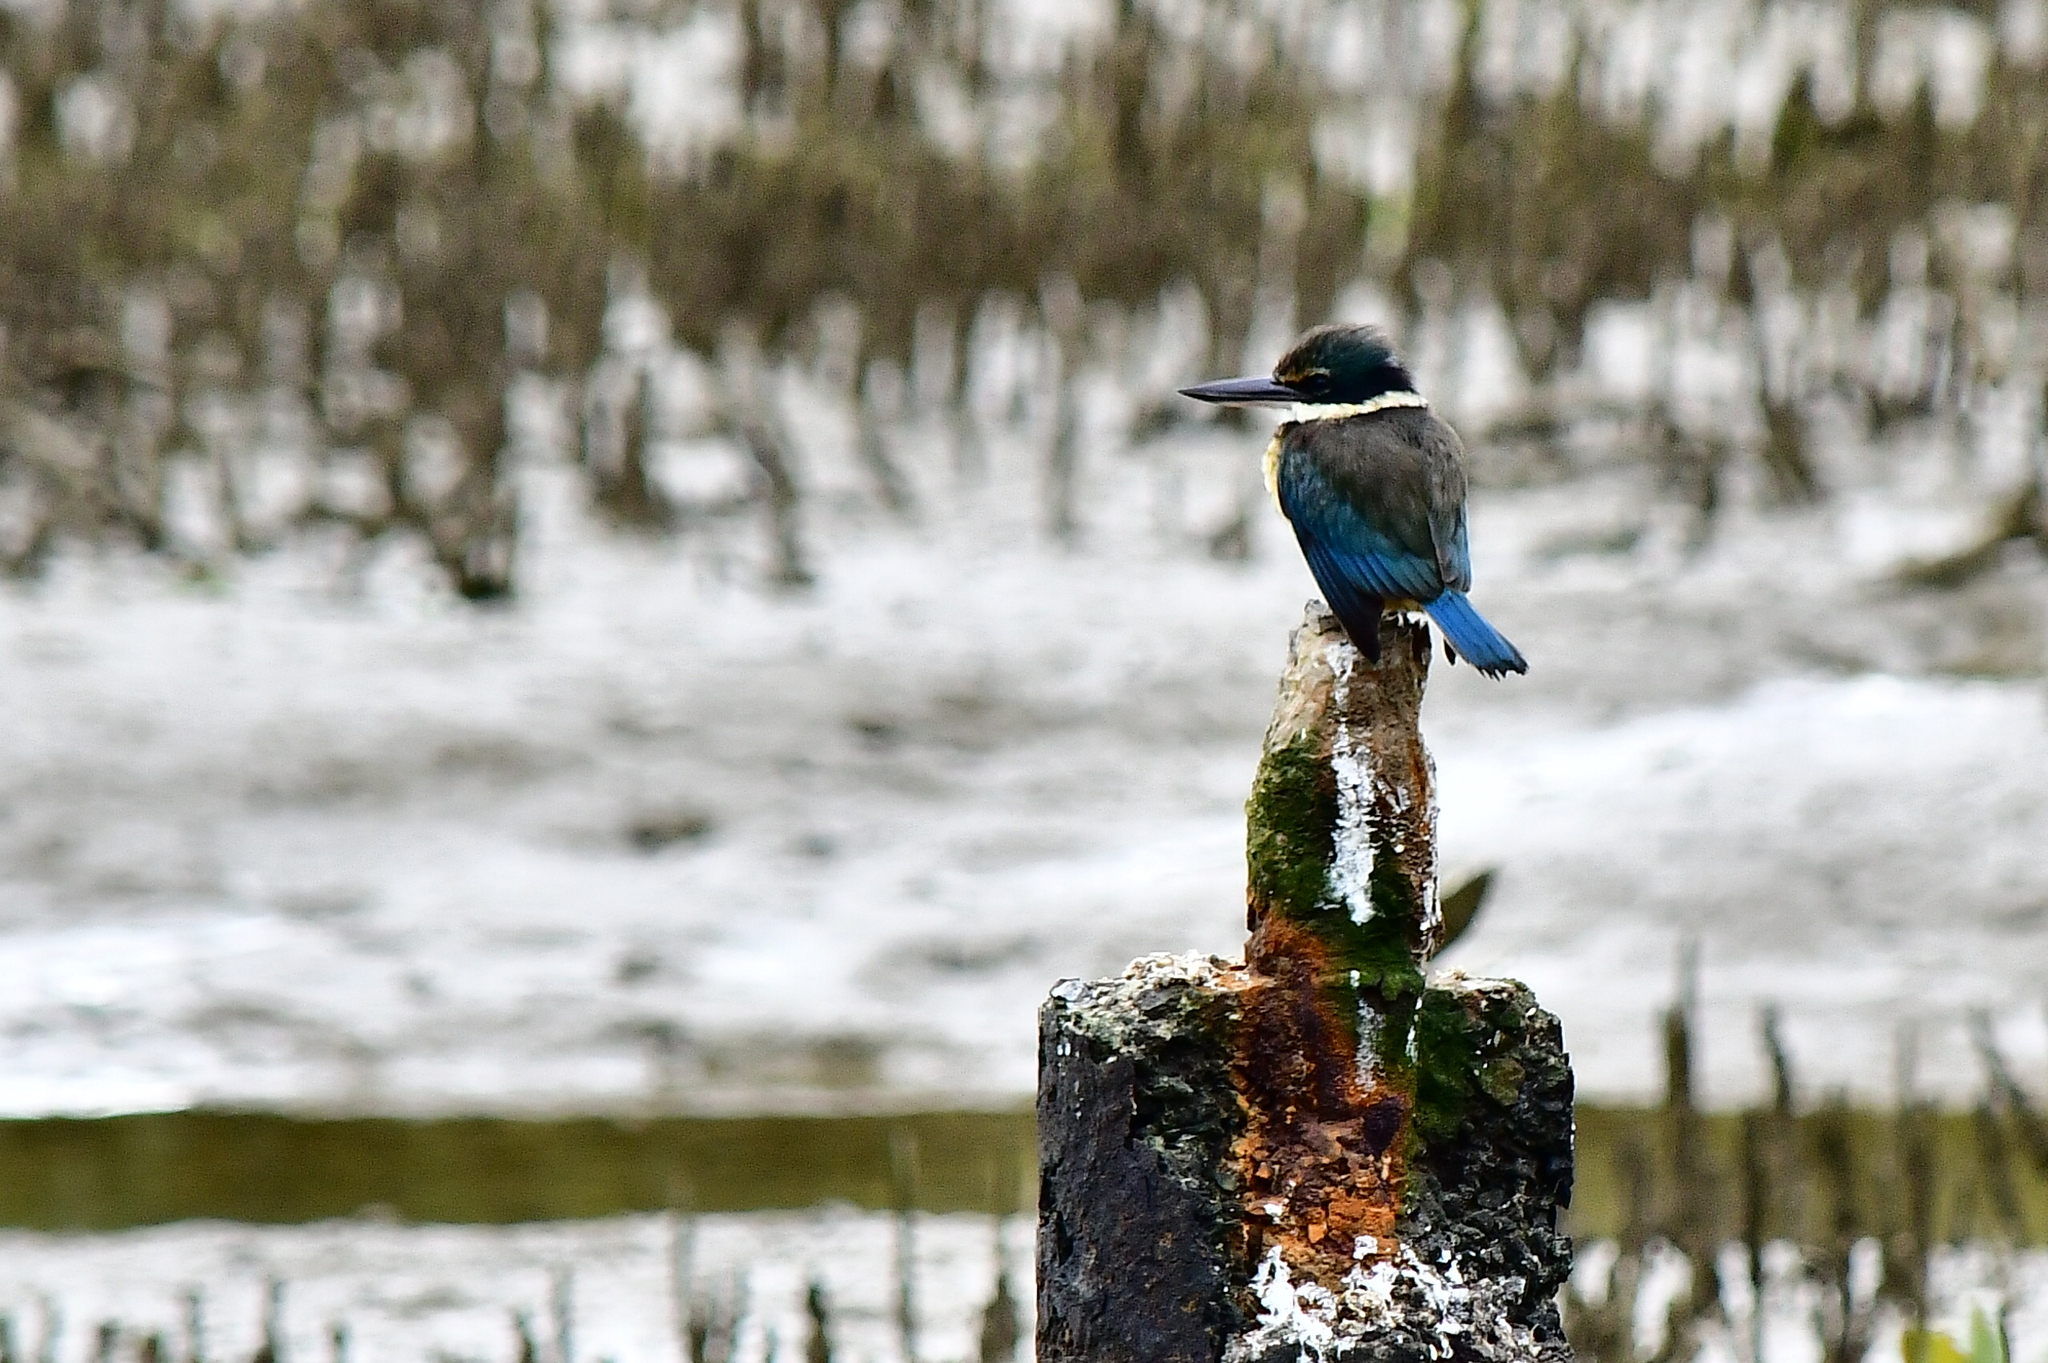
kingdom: Animalia
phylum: Chordata
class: Aves
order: Coraciiformes
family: Alcedinidae
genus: Todiramphus
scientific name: Todiramphus sanctus
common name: Sacred kingfisher
